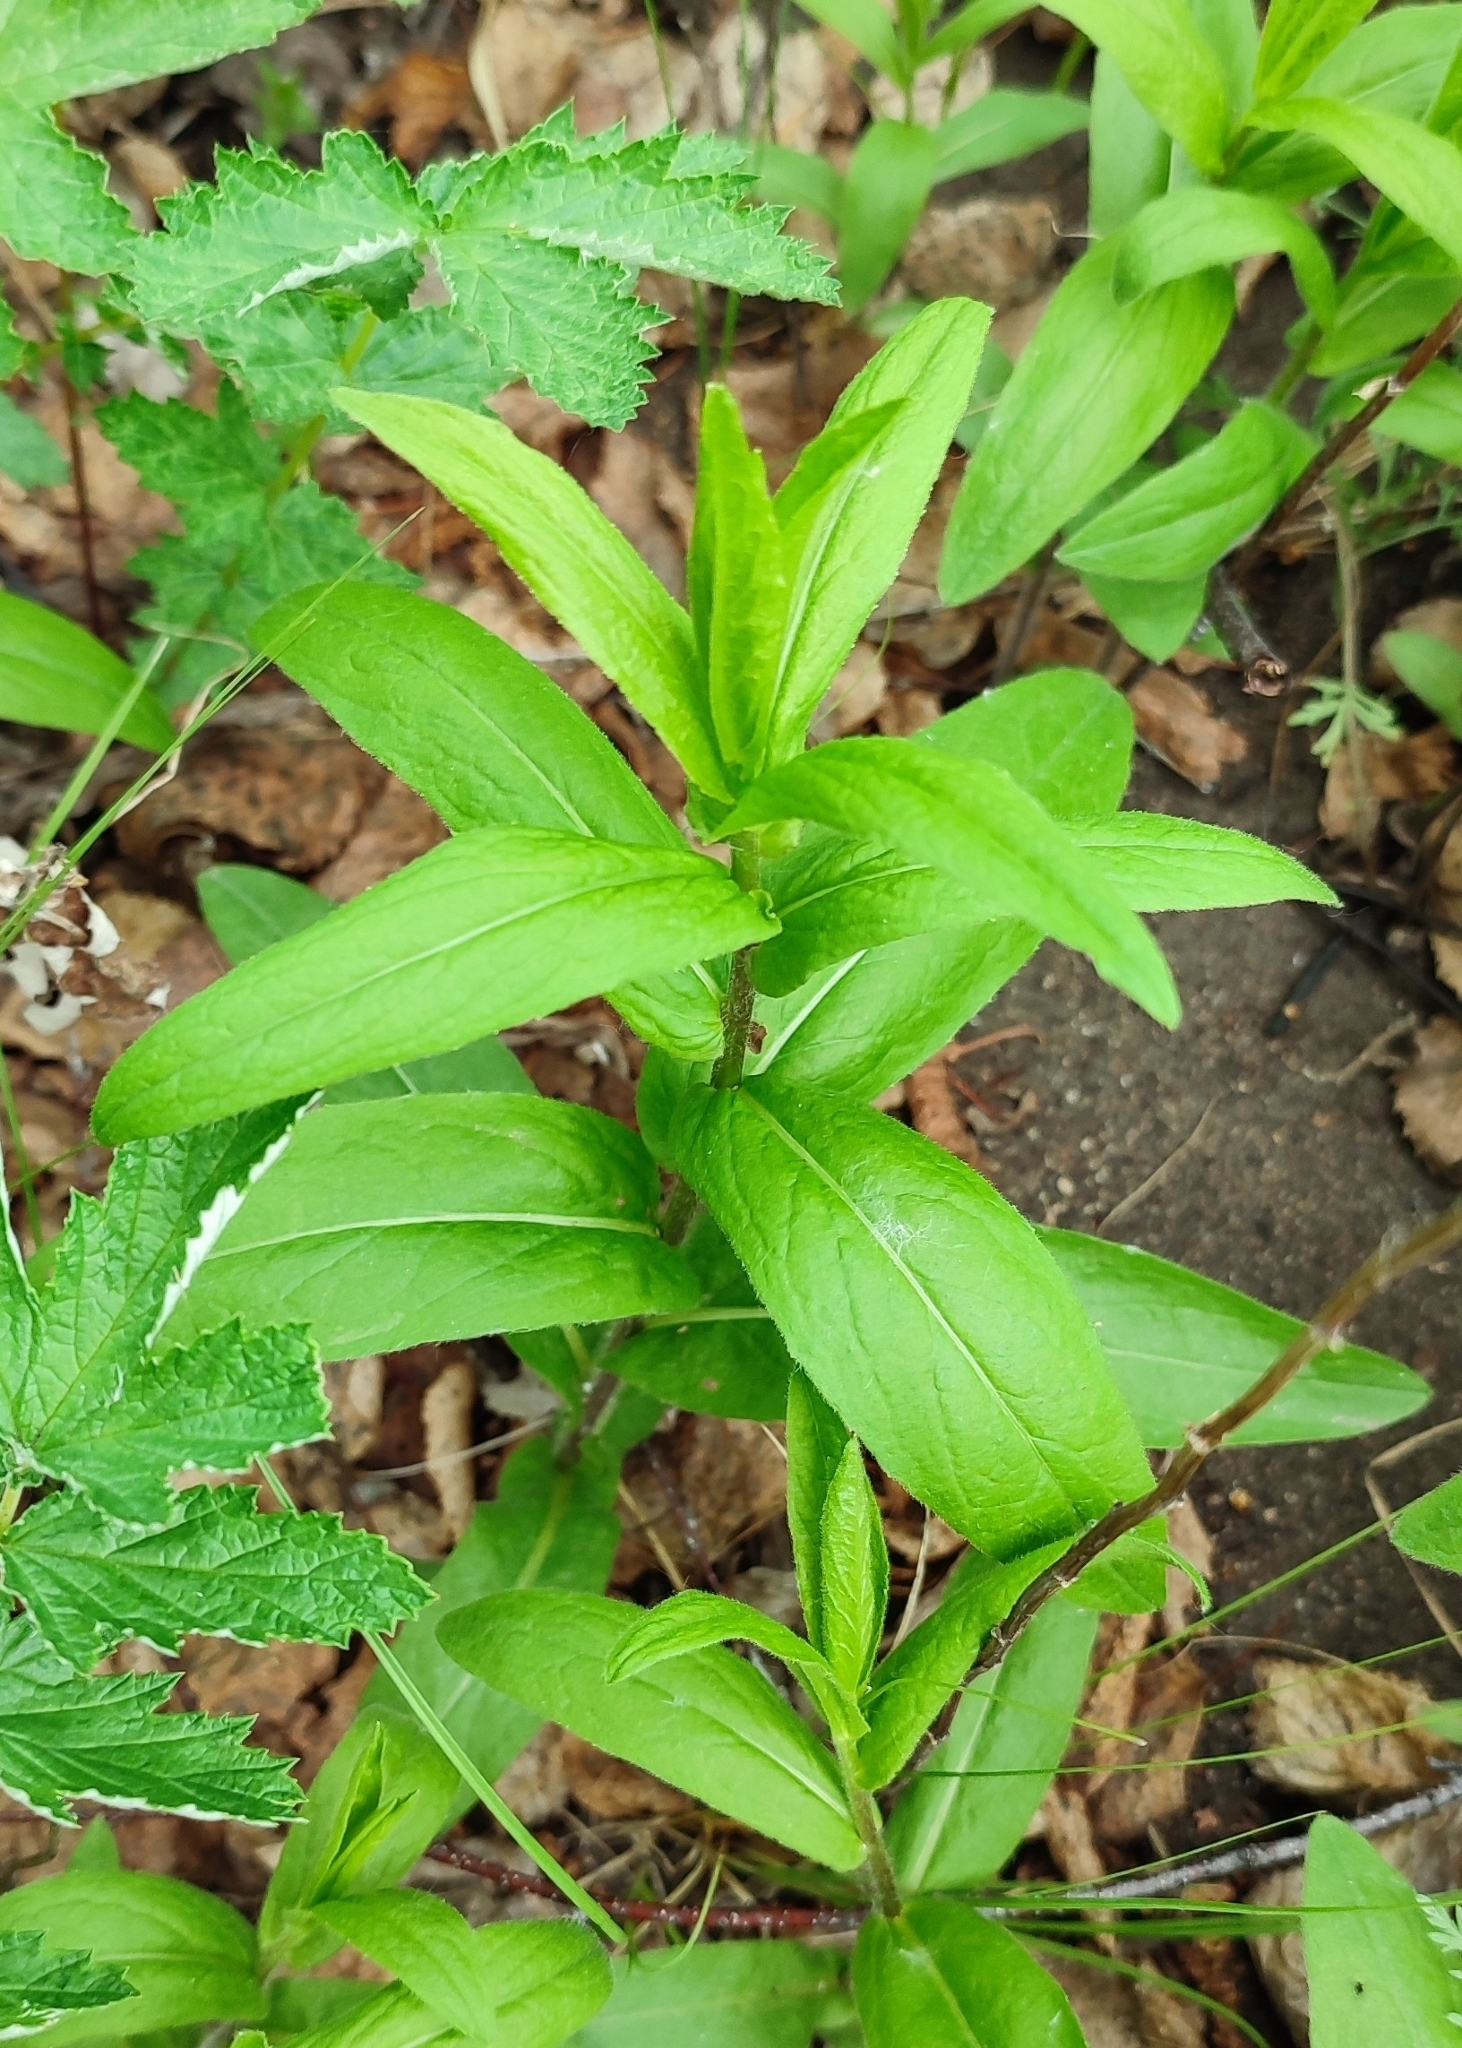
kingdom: Plantae
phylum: Tracheophyta
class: Magnoliopsida
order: Asterales
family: Asteraceae
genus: Pentanema
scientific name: Pentanema salicinum
